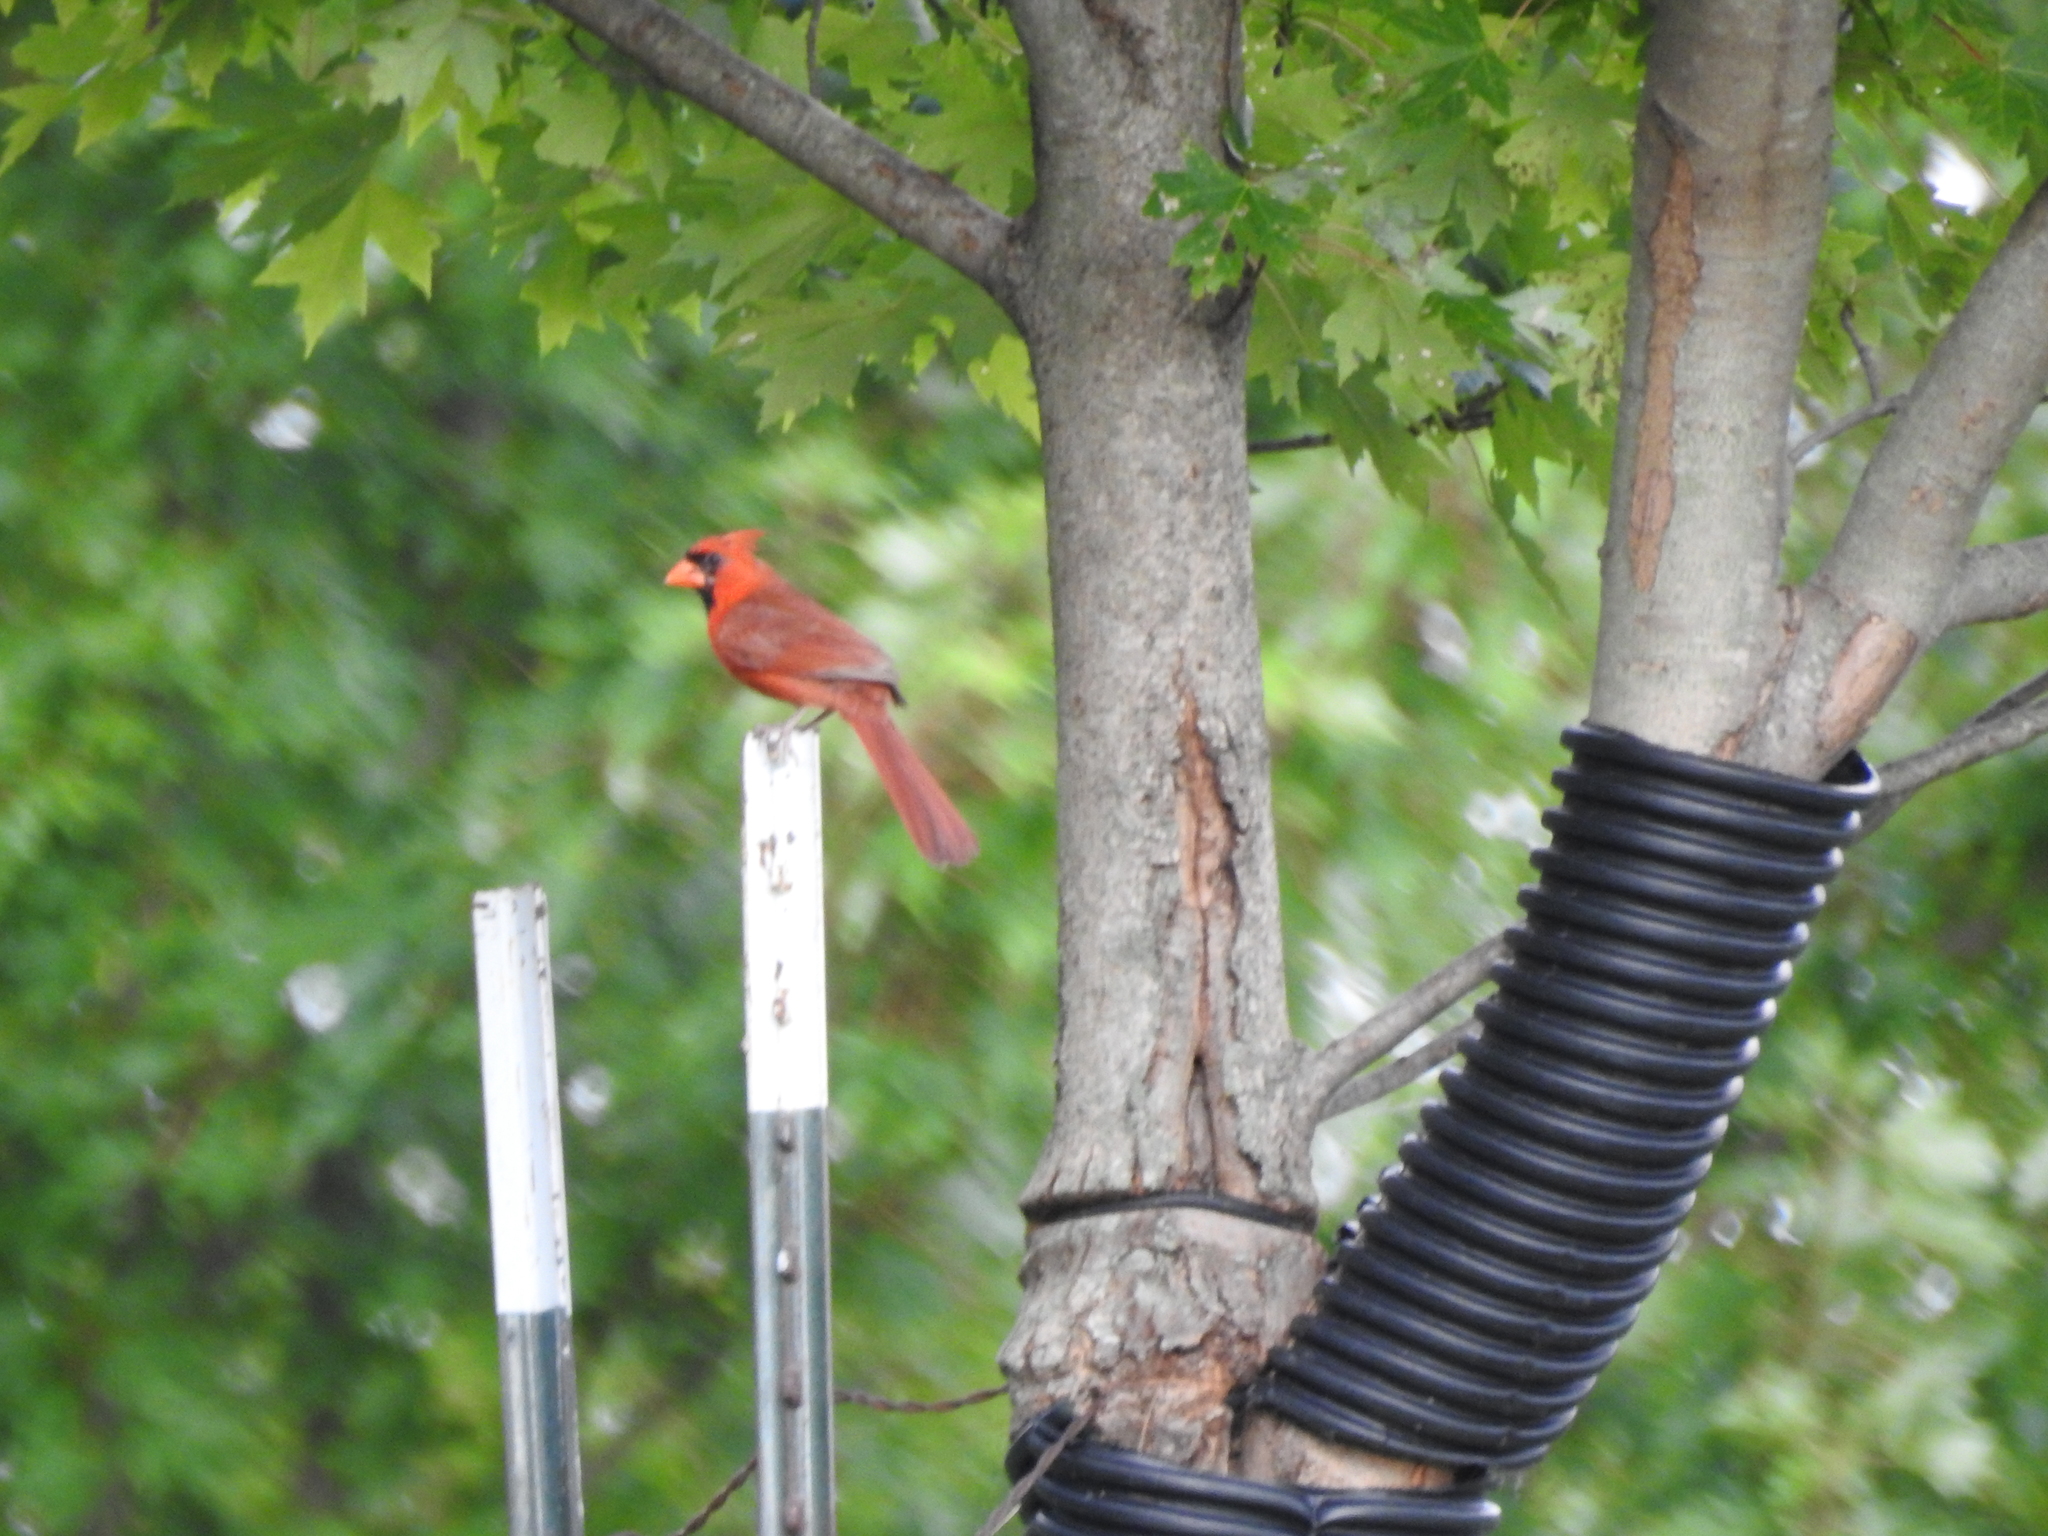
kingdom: Animalia
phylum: Chordata
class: Aves
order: Passeriformes
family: Cardinalidae
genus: Cardinalis
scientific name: Cardinalis cardinalis
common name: Northern cardinal
